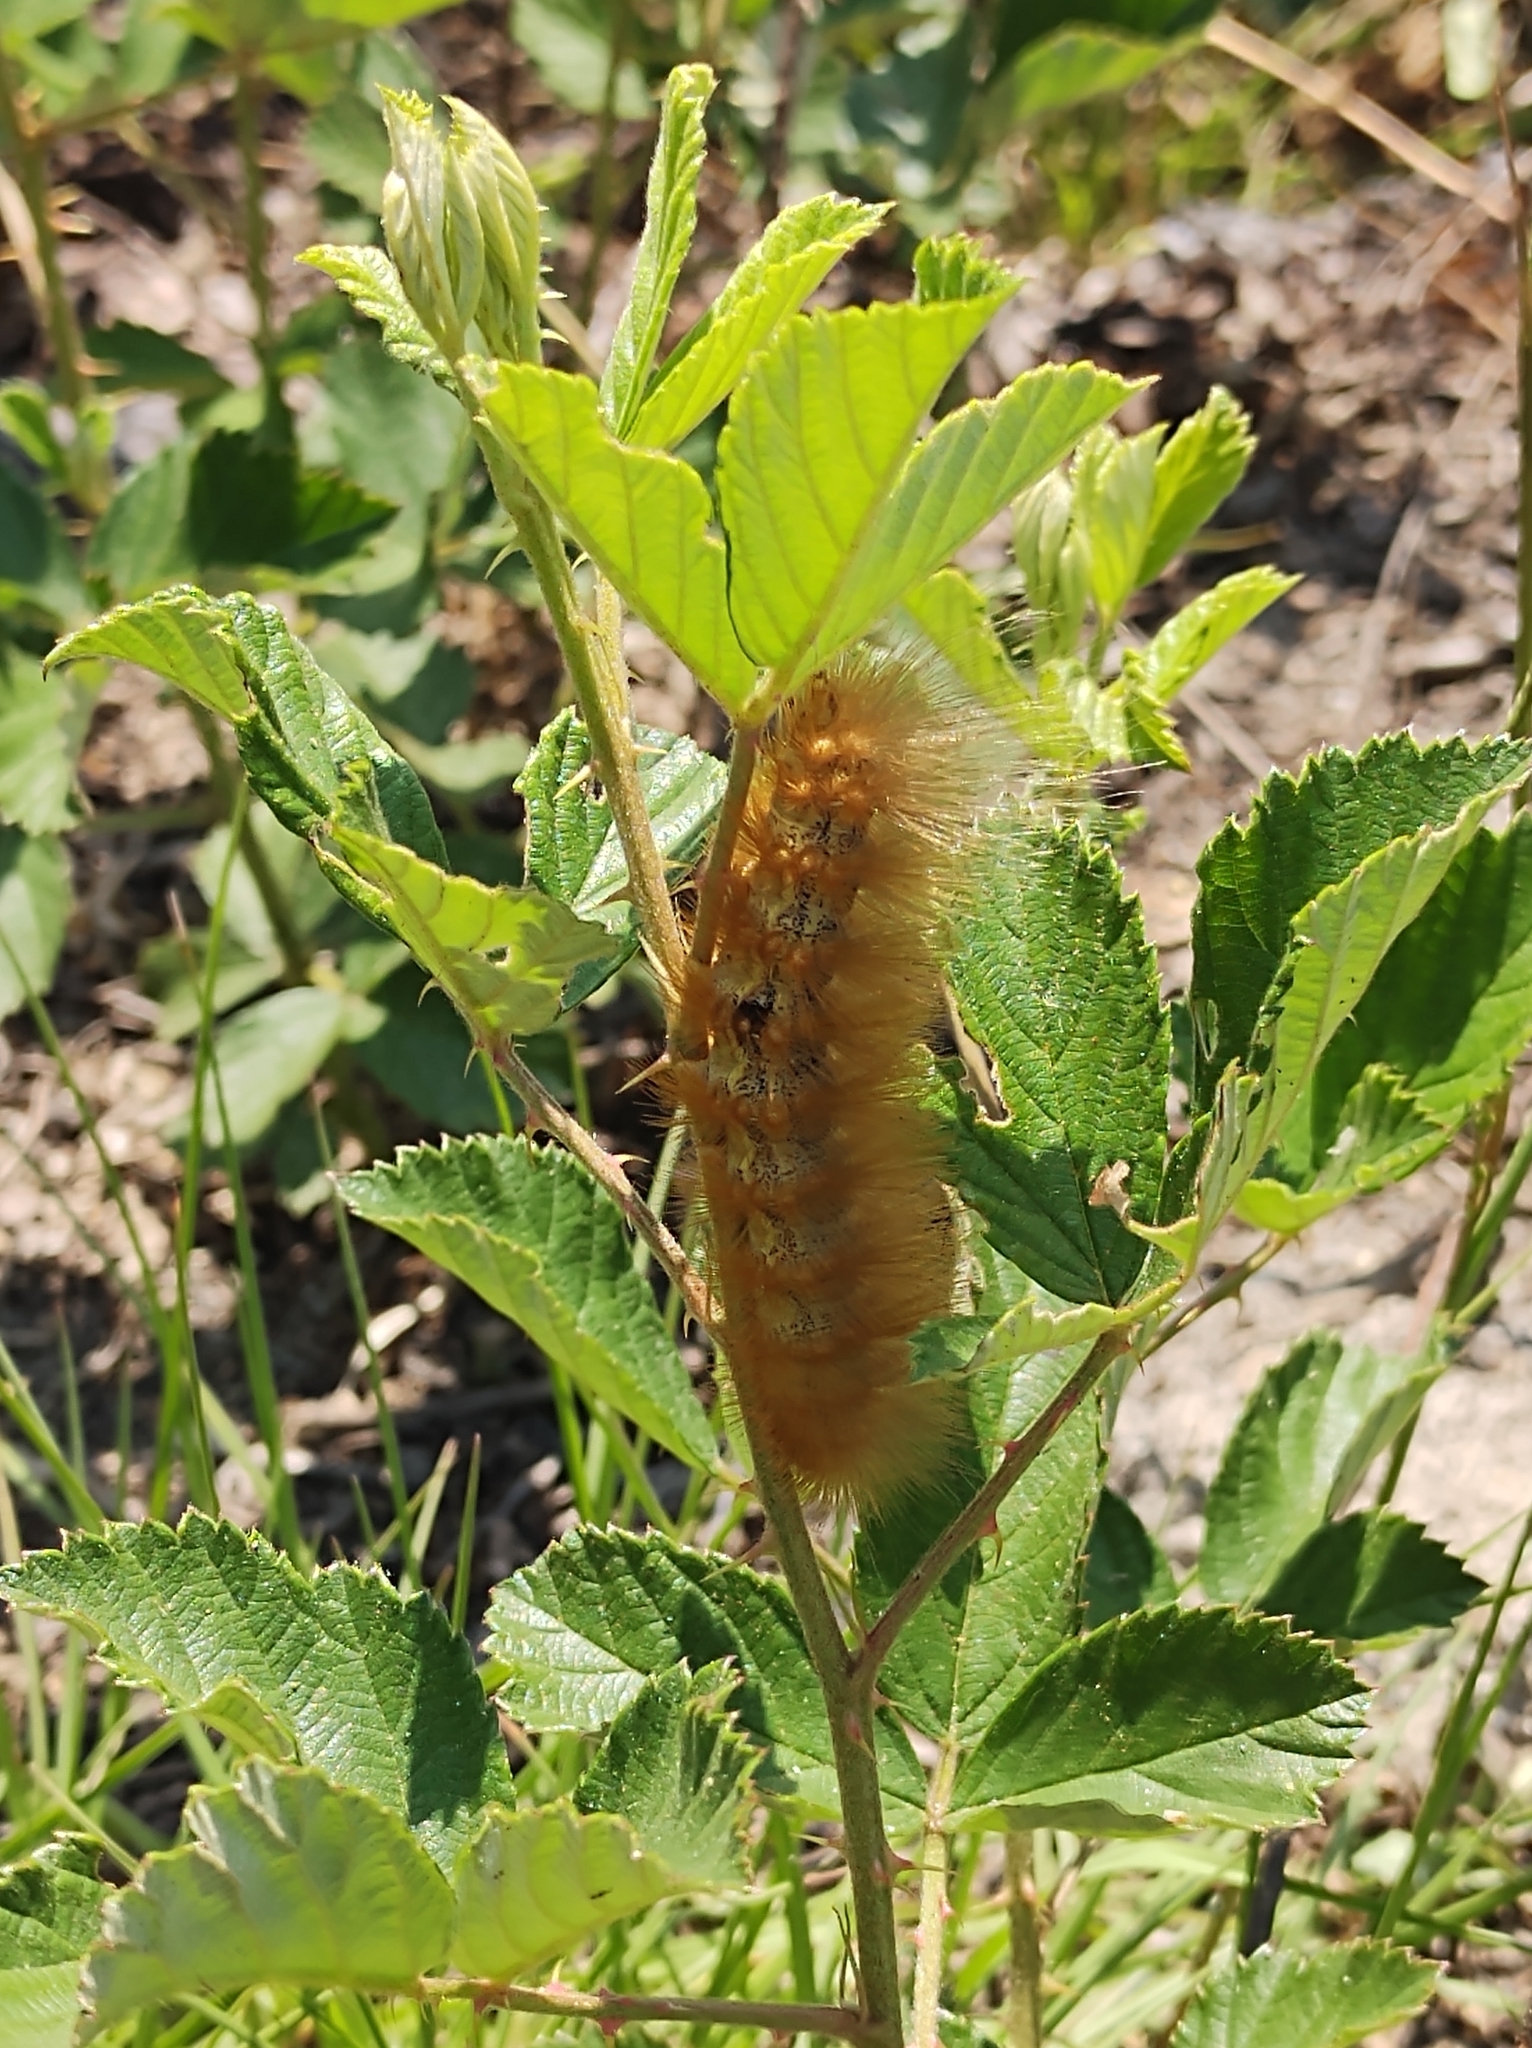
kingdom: Animalia
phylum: Arthropoda
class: Insecta
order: Lepidoptera
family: Erebidae
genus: Estigmene
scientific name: Estigmene acrea
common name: Salt marsh moth
